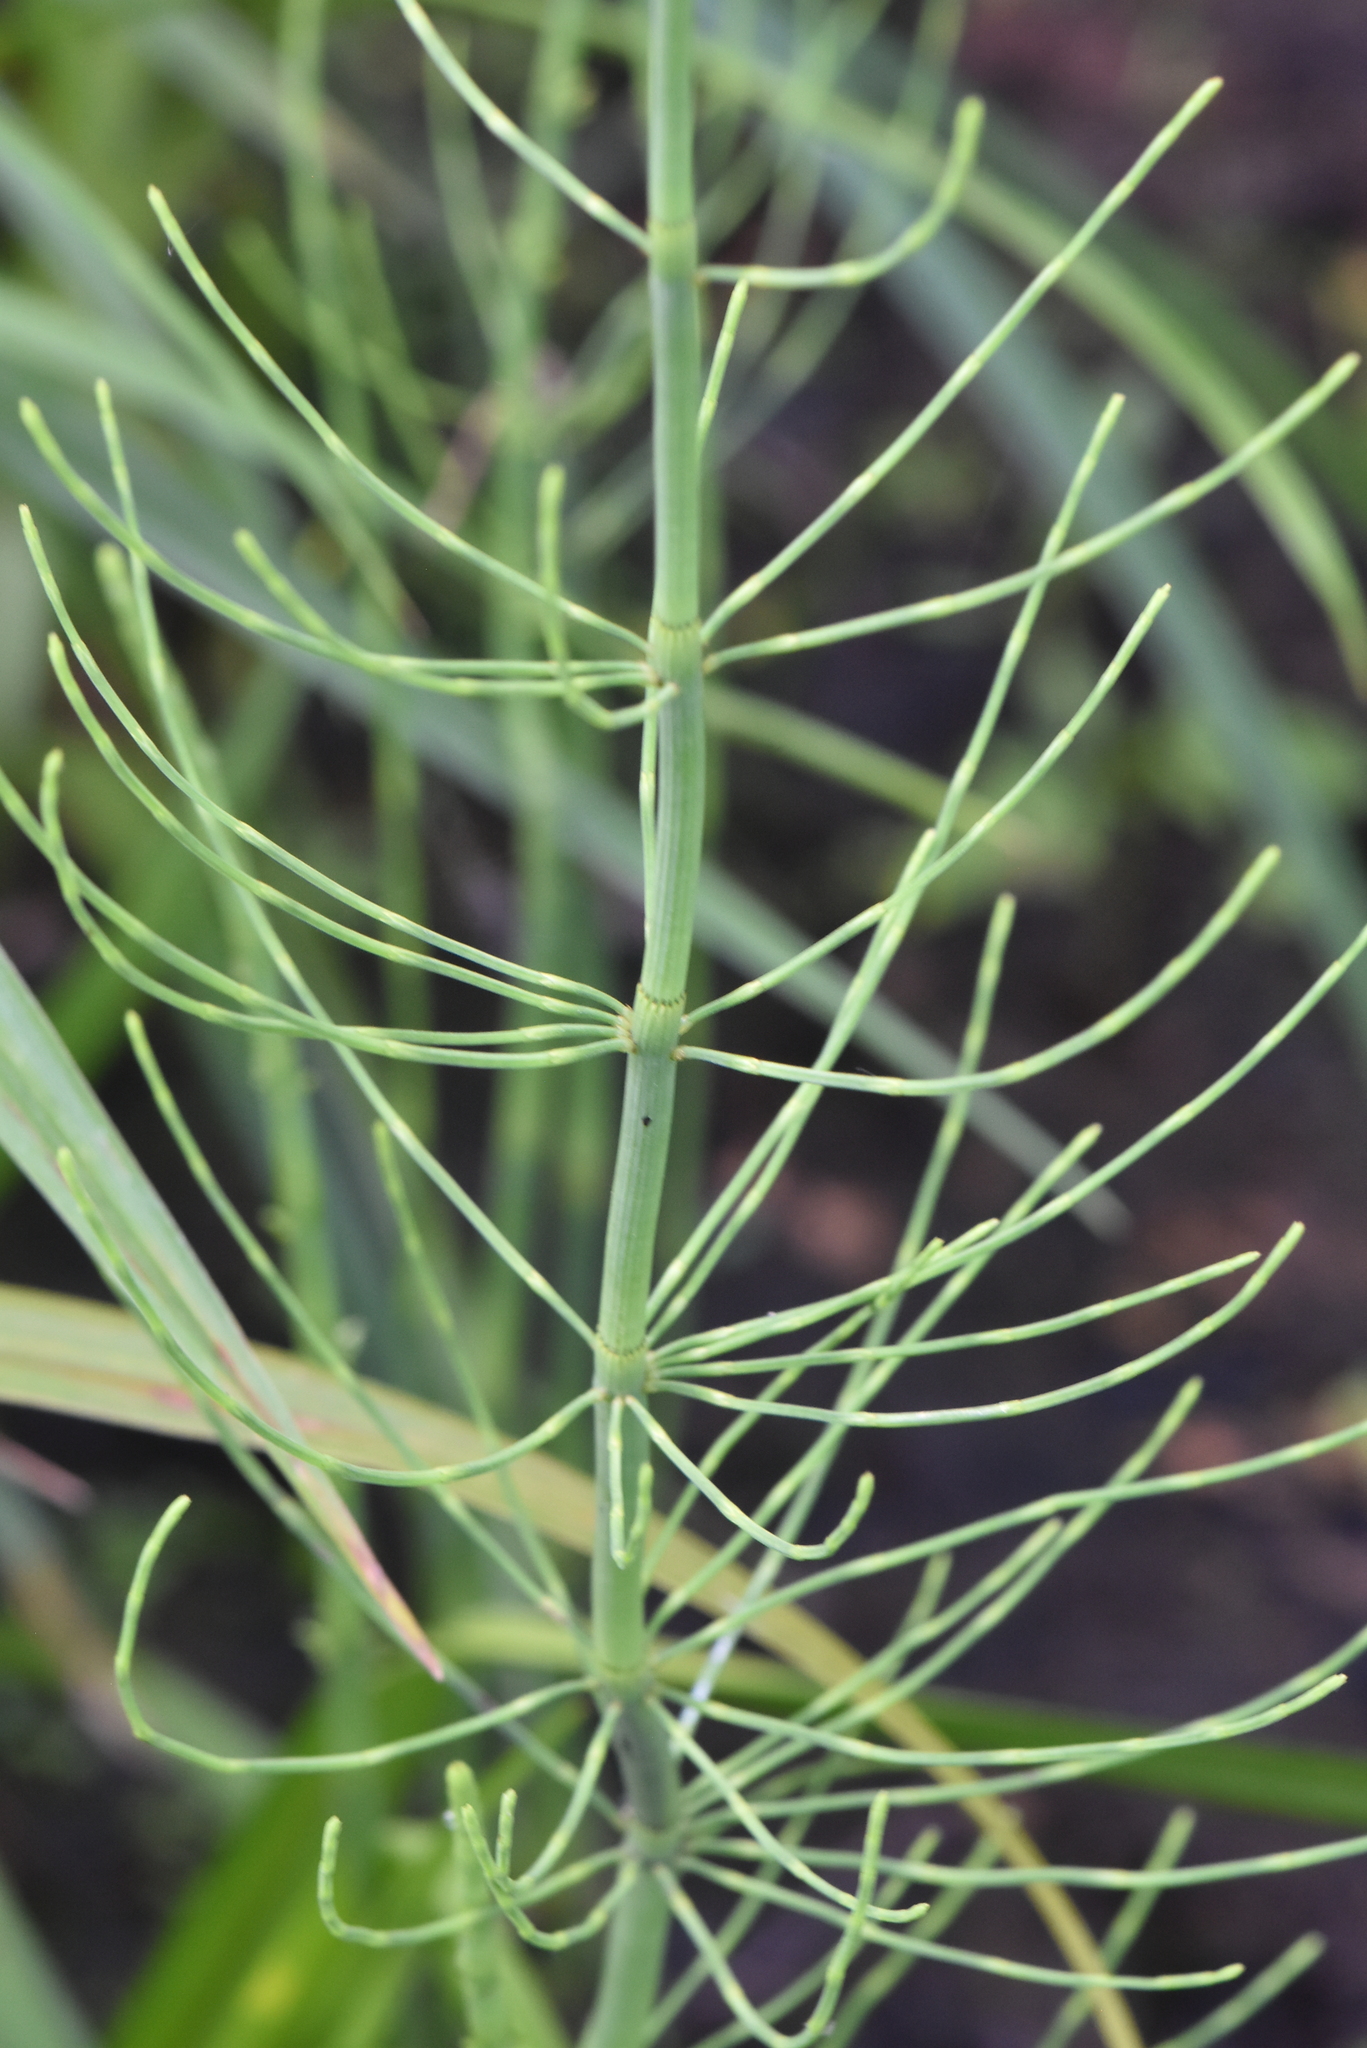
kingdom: Plantae
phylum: Tracheophyta
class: Polypodiopsida
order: Equisetales
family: Equisetaceae
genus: Equisetum
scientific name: Equisetum fluviatile
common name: Water horsetail
